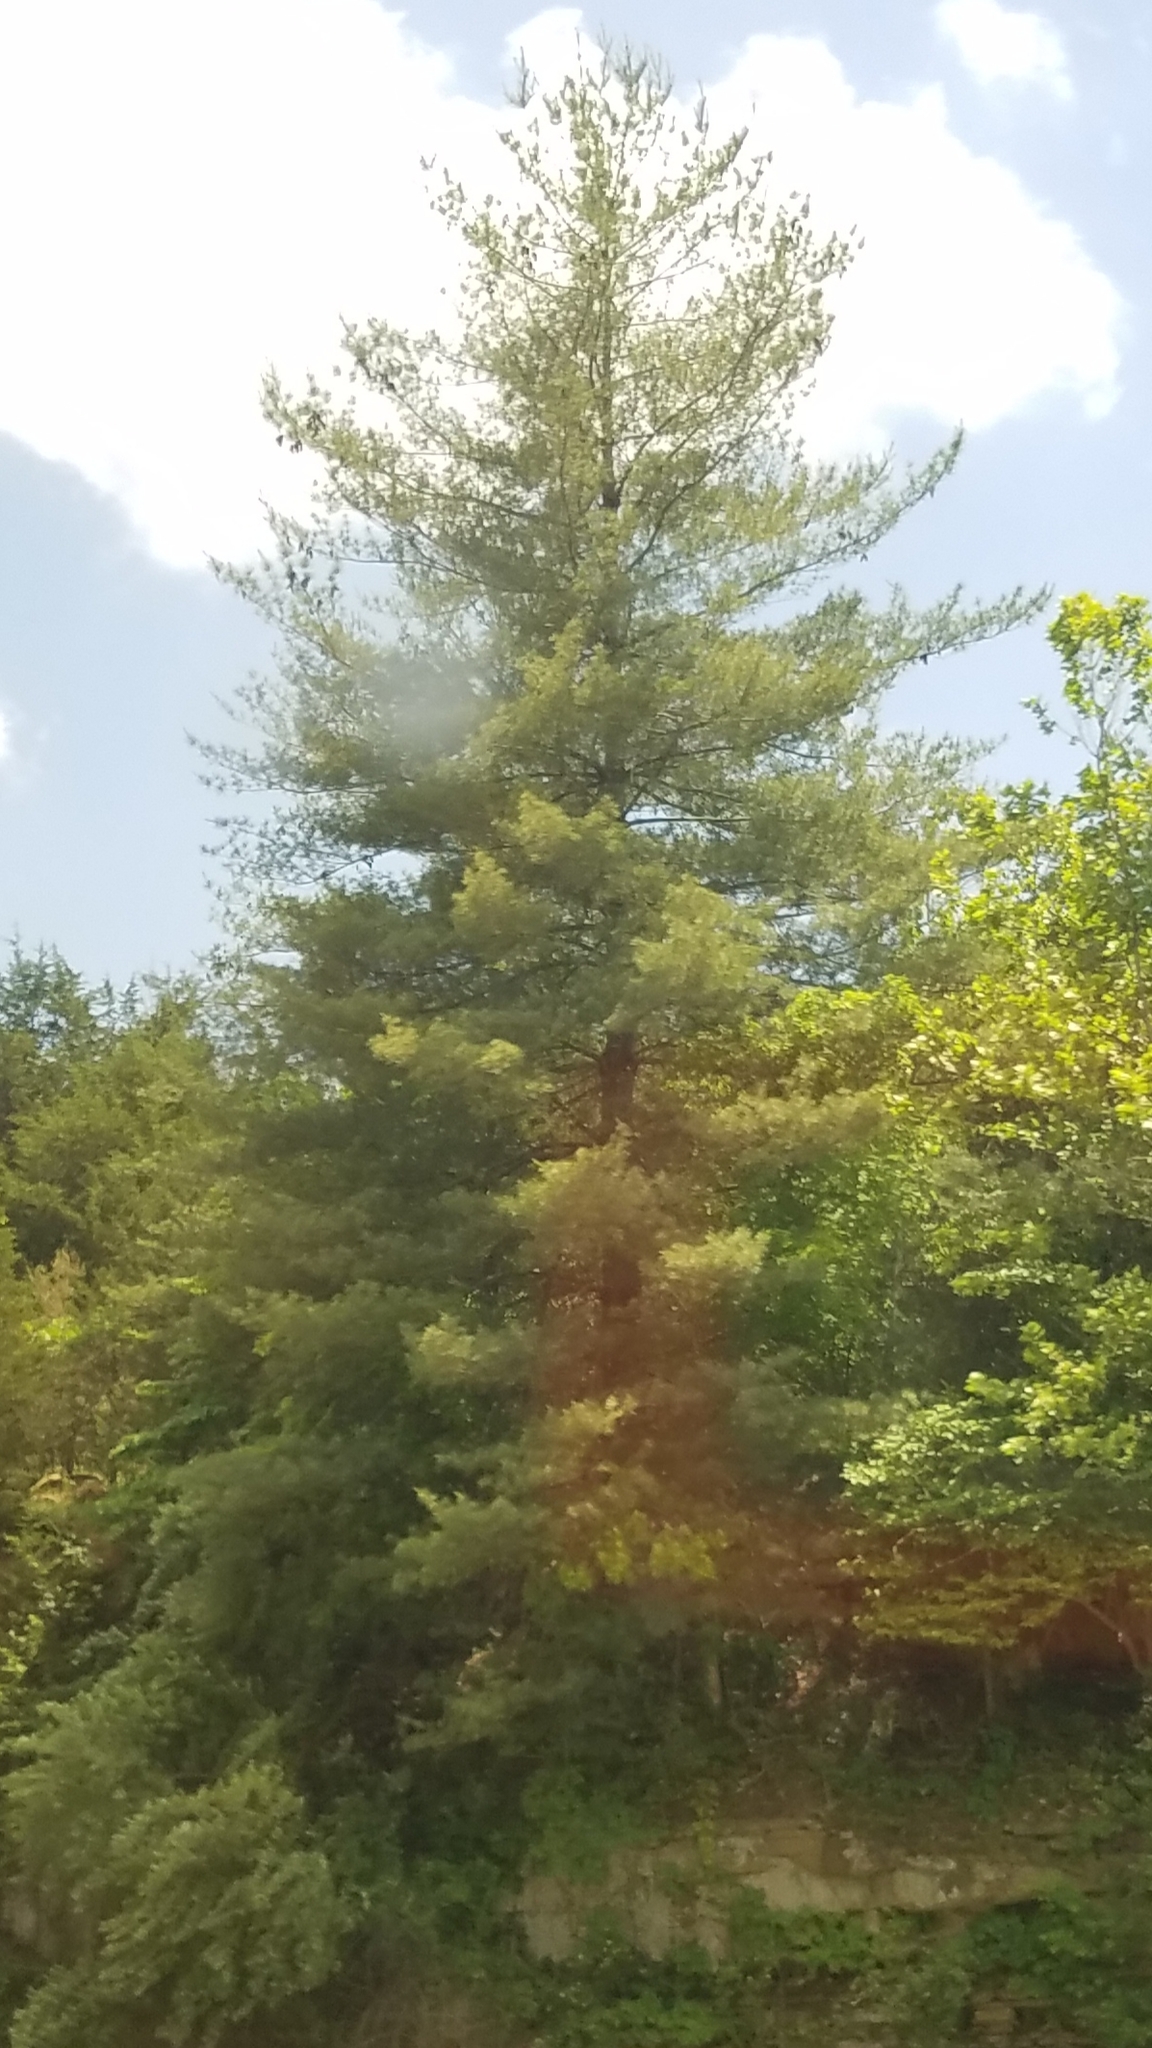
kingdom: Plantae
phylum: Tracheophyta
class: Pinopsida
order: Pinales
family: Pinaceae
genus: Pinus
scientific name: Pinus strobus
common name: Weymouth pine
